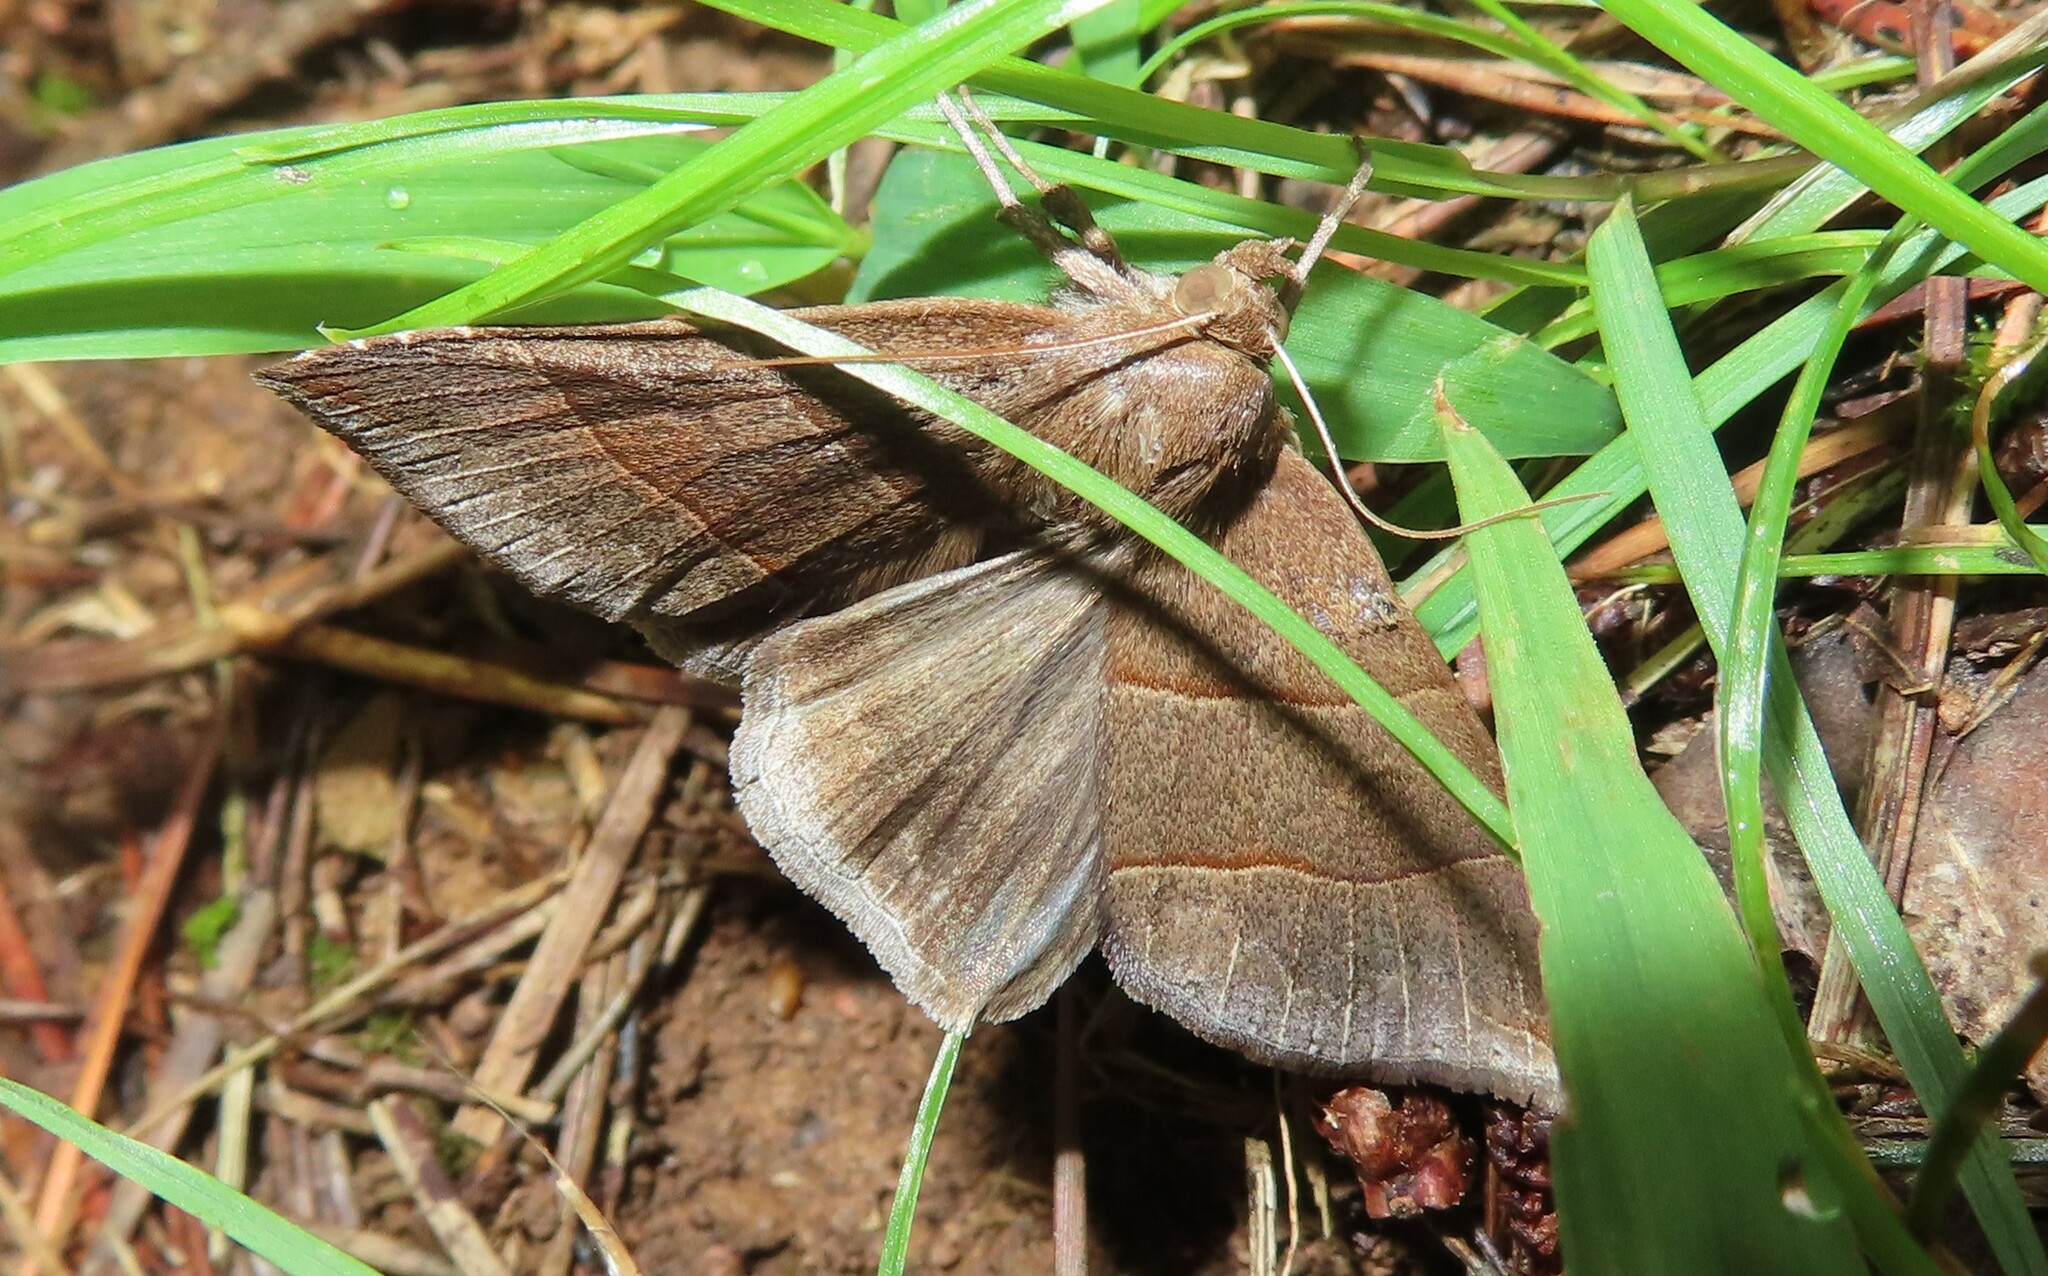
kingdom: Animalia
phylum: Arthropoda
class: Insecta
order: Lepidoptera
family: Erebidae
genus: Parallelia
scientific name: Parallelia bistriaris
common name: Maple looper moth
